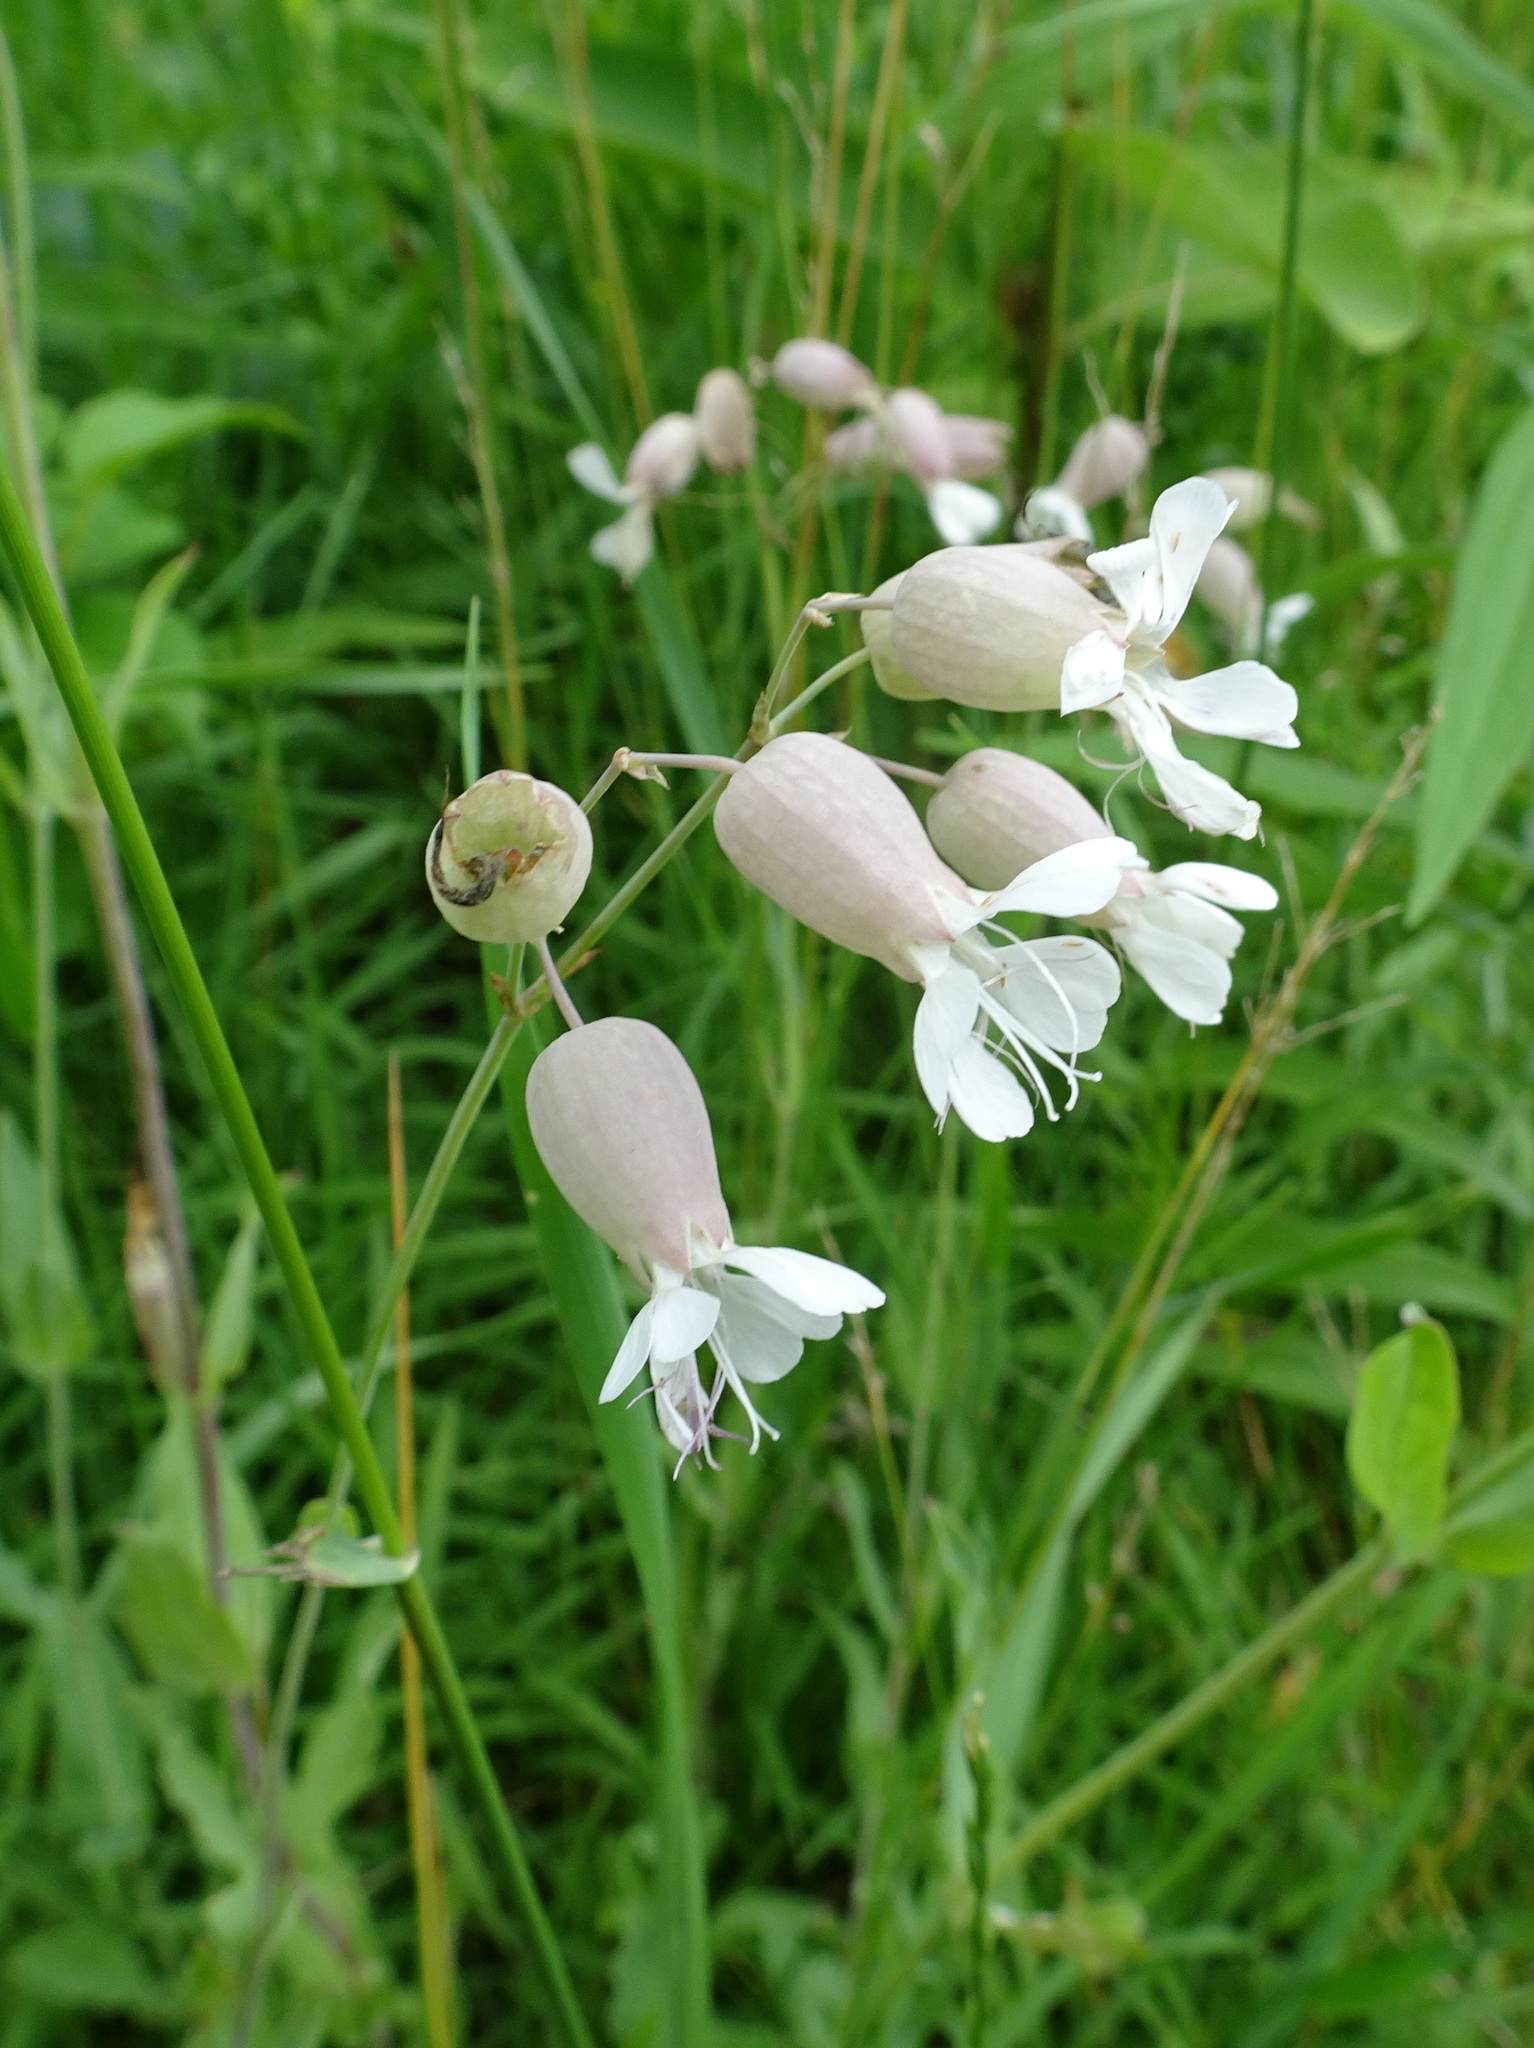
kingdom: Plantae
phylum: Tracheophyta
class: Magnoliopsida
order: Caryophyllales
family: Caryophyllaceae
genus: Silene
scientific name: Silene vulgaris
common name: Bladder campion
